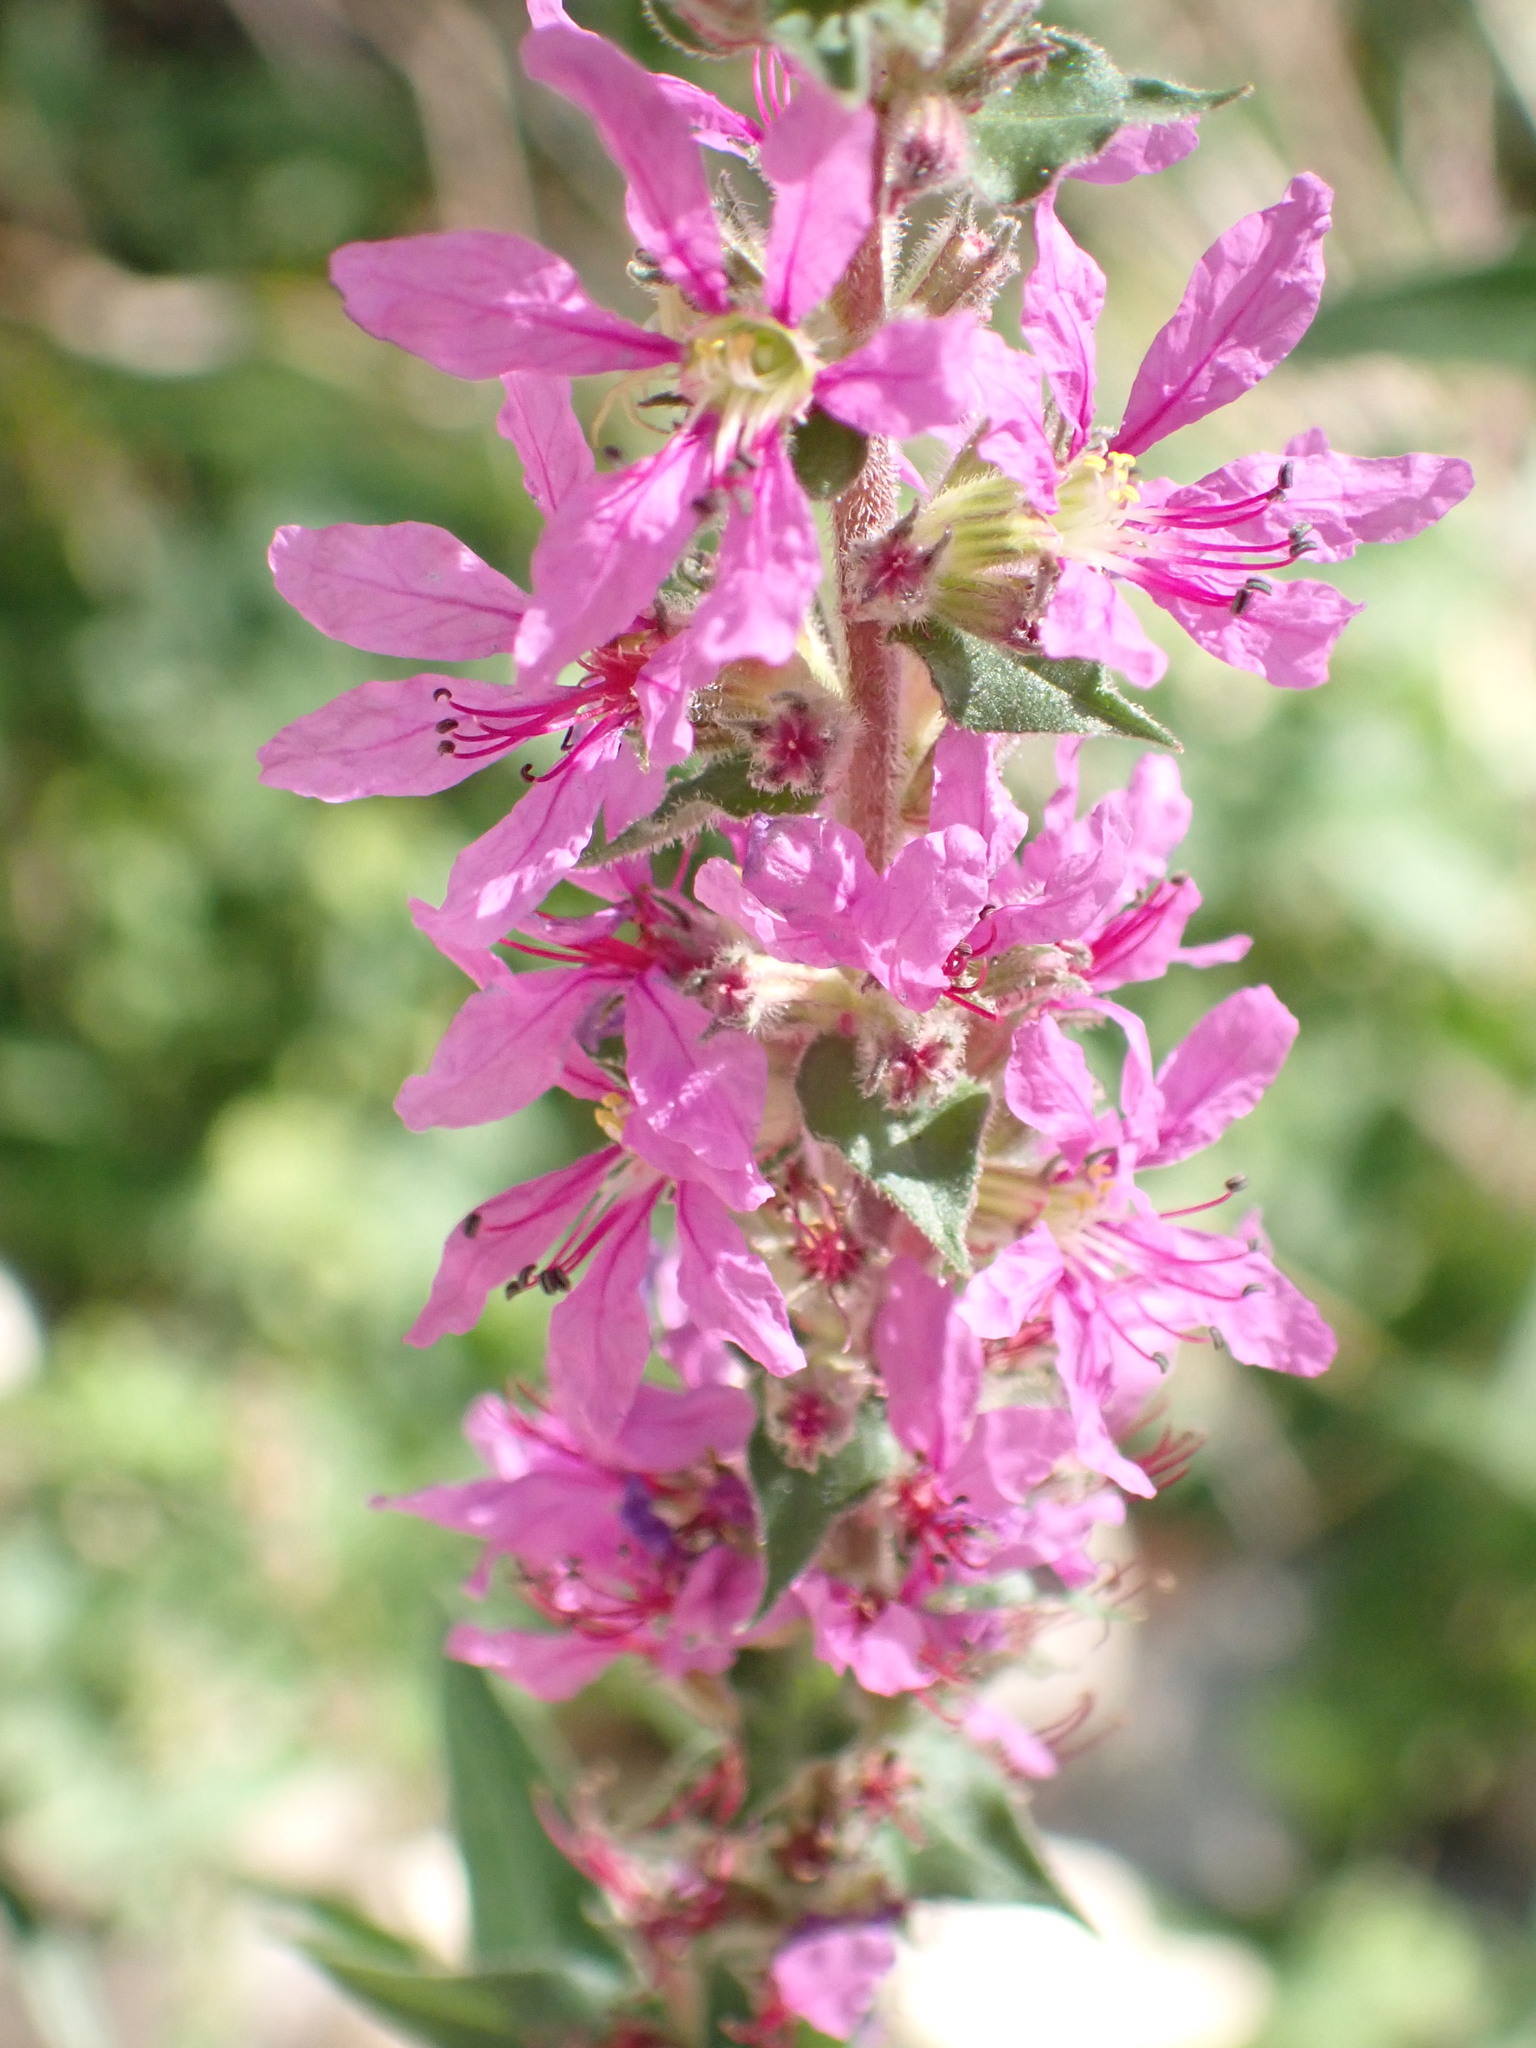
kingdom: Plantae
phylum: Tracheophyta
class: Magnoliopsida
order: Myrtales
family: Lythraceae
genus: Lythrum
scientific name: Lythrum salicaria
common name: Purple loosestrife
